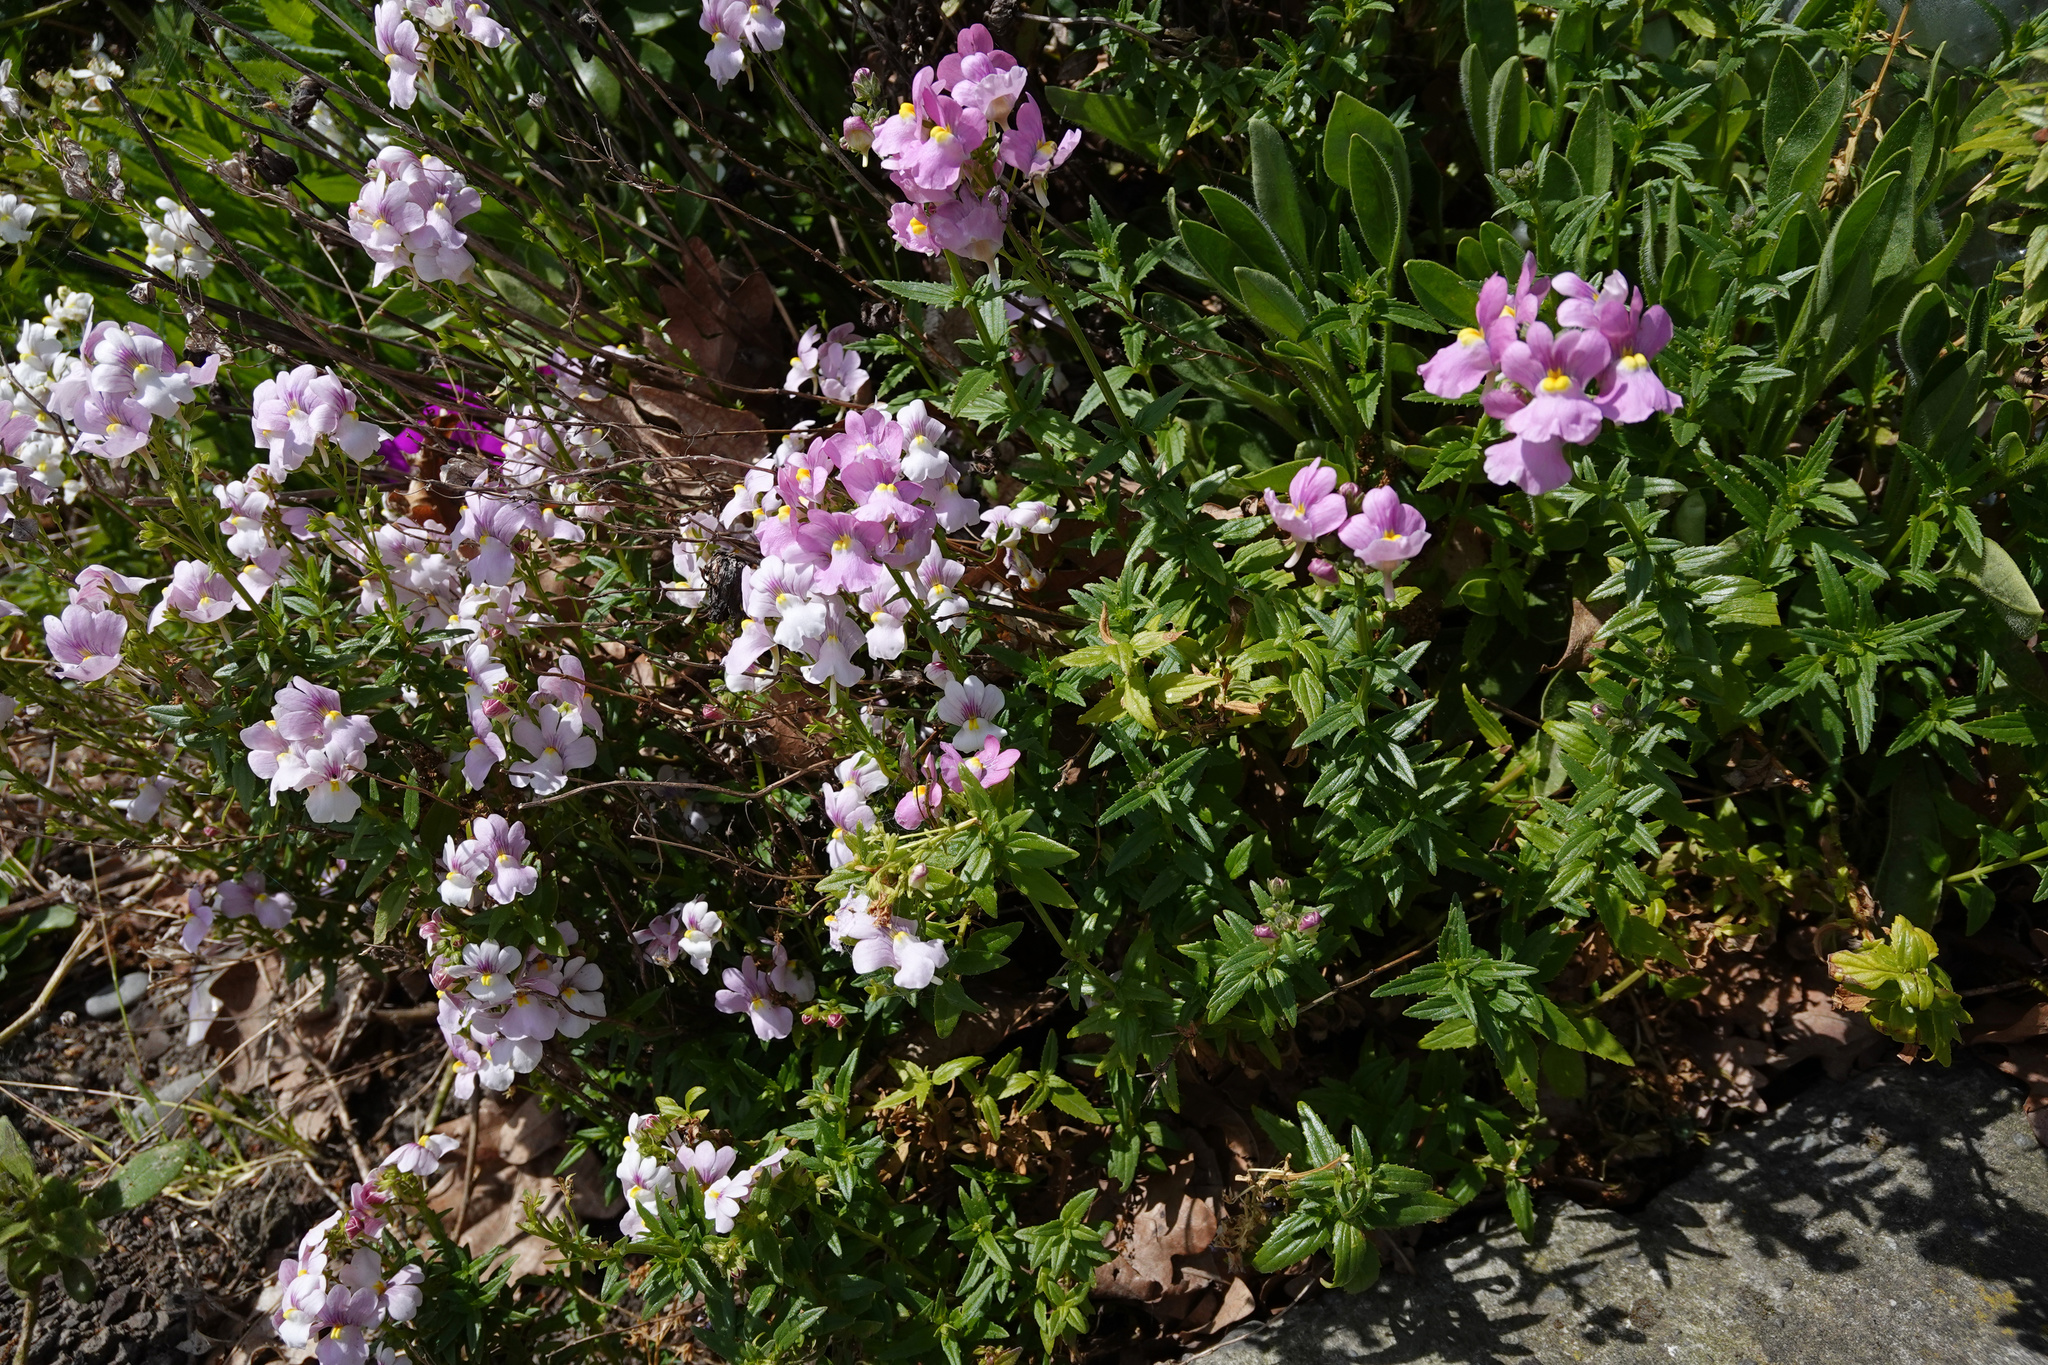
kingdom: Plantae
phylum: Tracheophyta
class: Magnoliopsida
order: Lamiales
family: Scrophulariaceae
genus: Nemesia
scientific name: Nemesia fruticans
